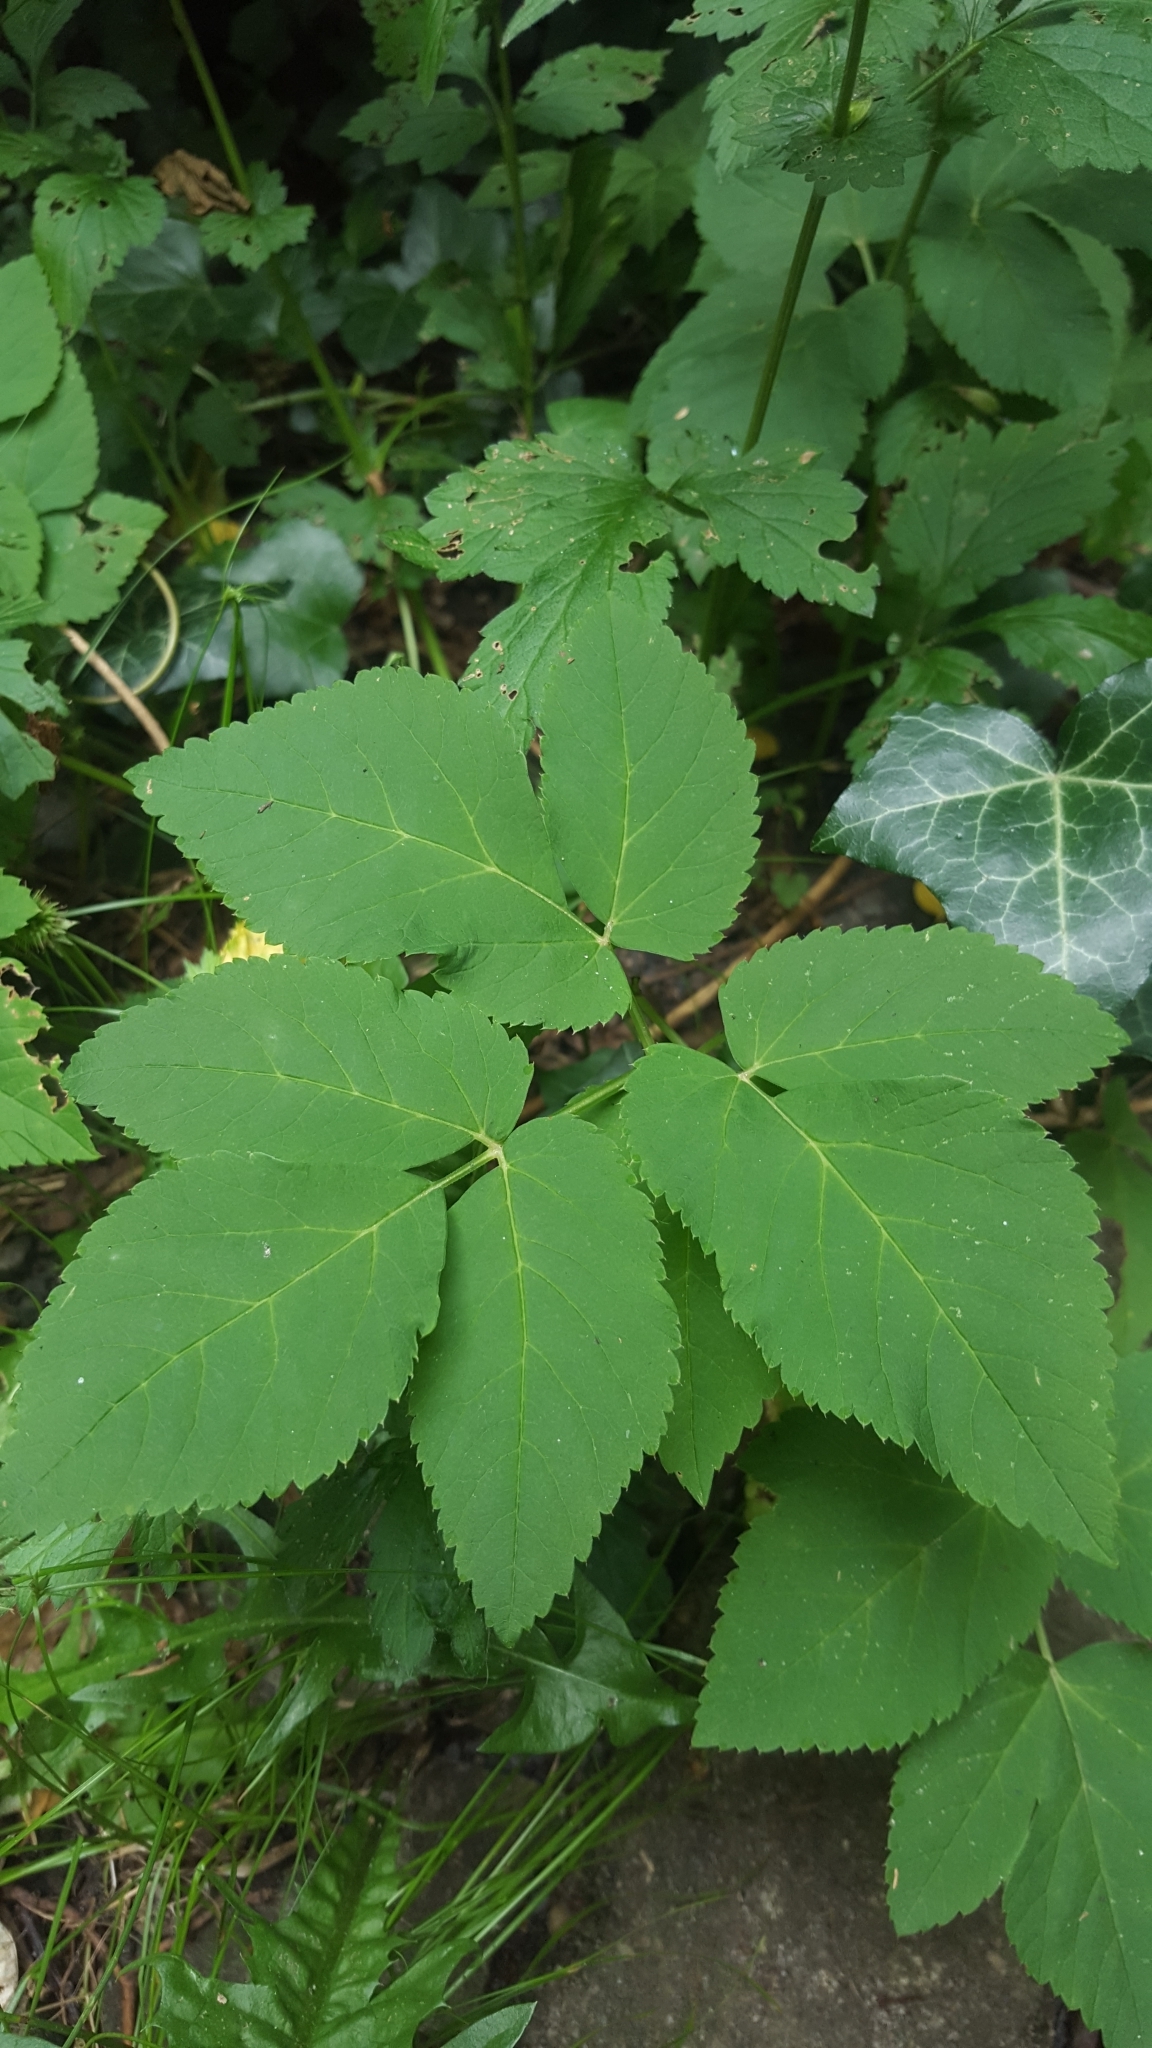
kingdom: Plantae
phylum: Tracheophyta
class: Magnoliopsida
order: Apiales
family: Apiaceae
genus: Aegopodium
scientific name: Aegopodium podagraria
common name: Ground-elder
